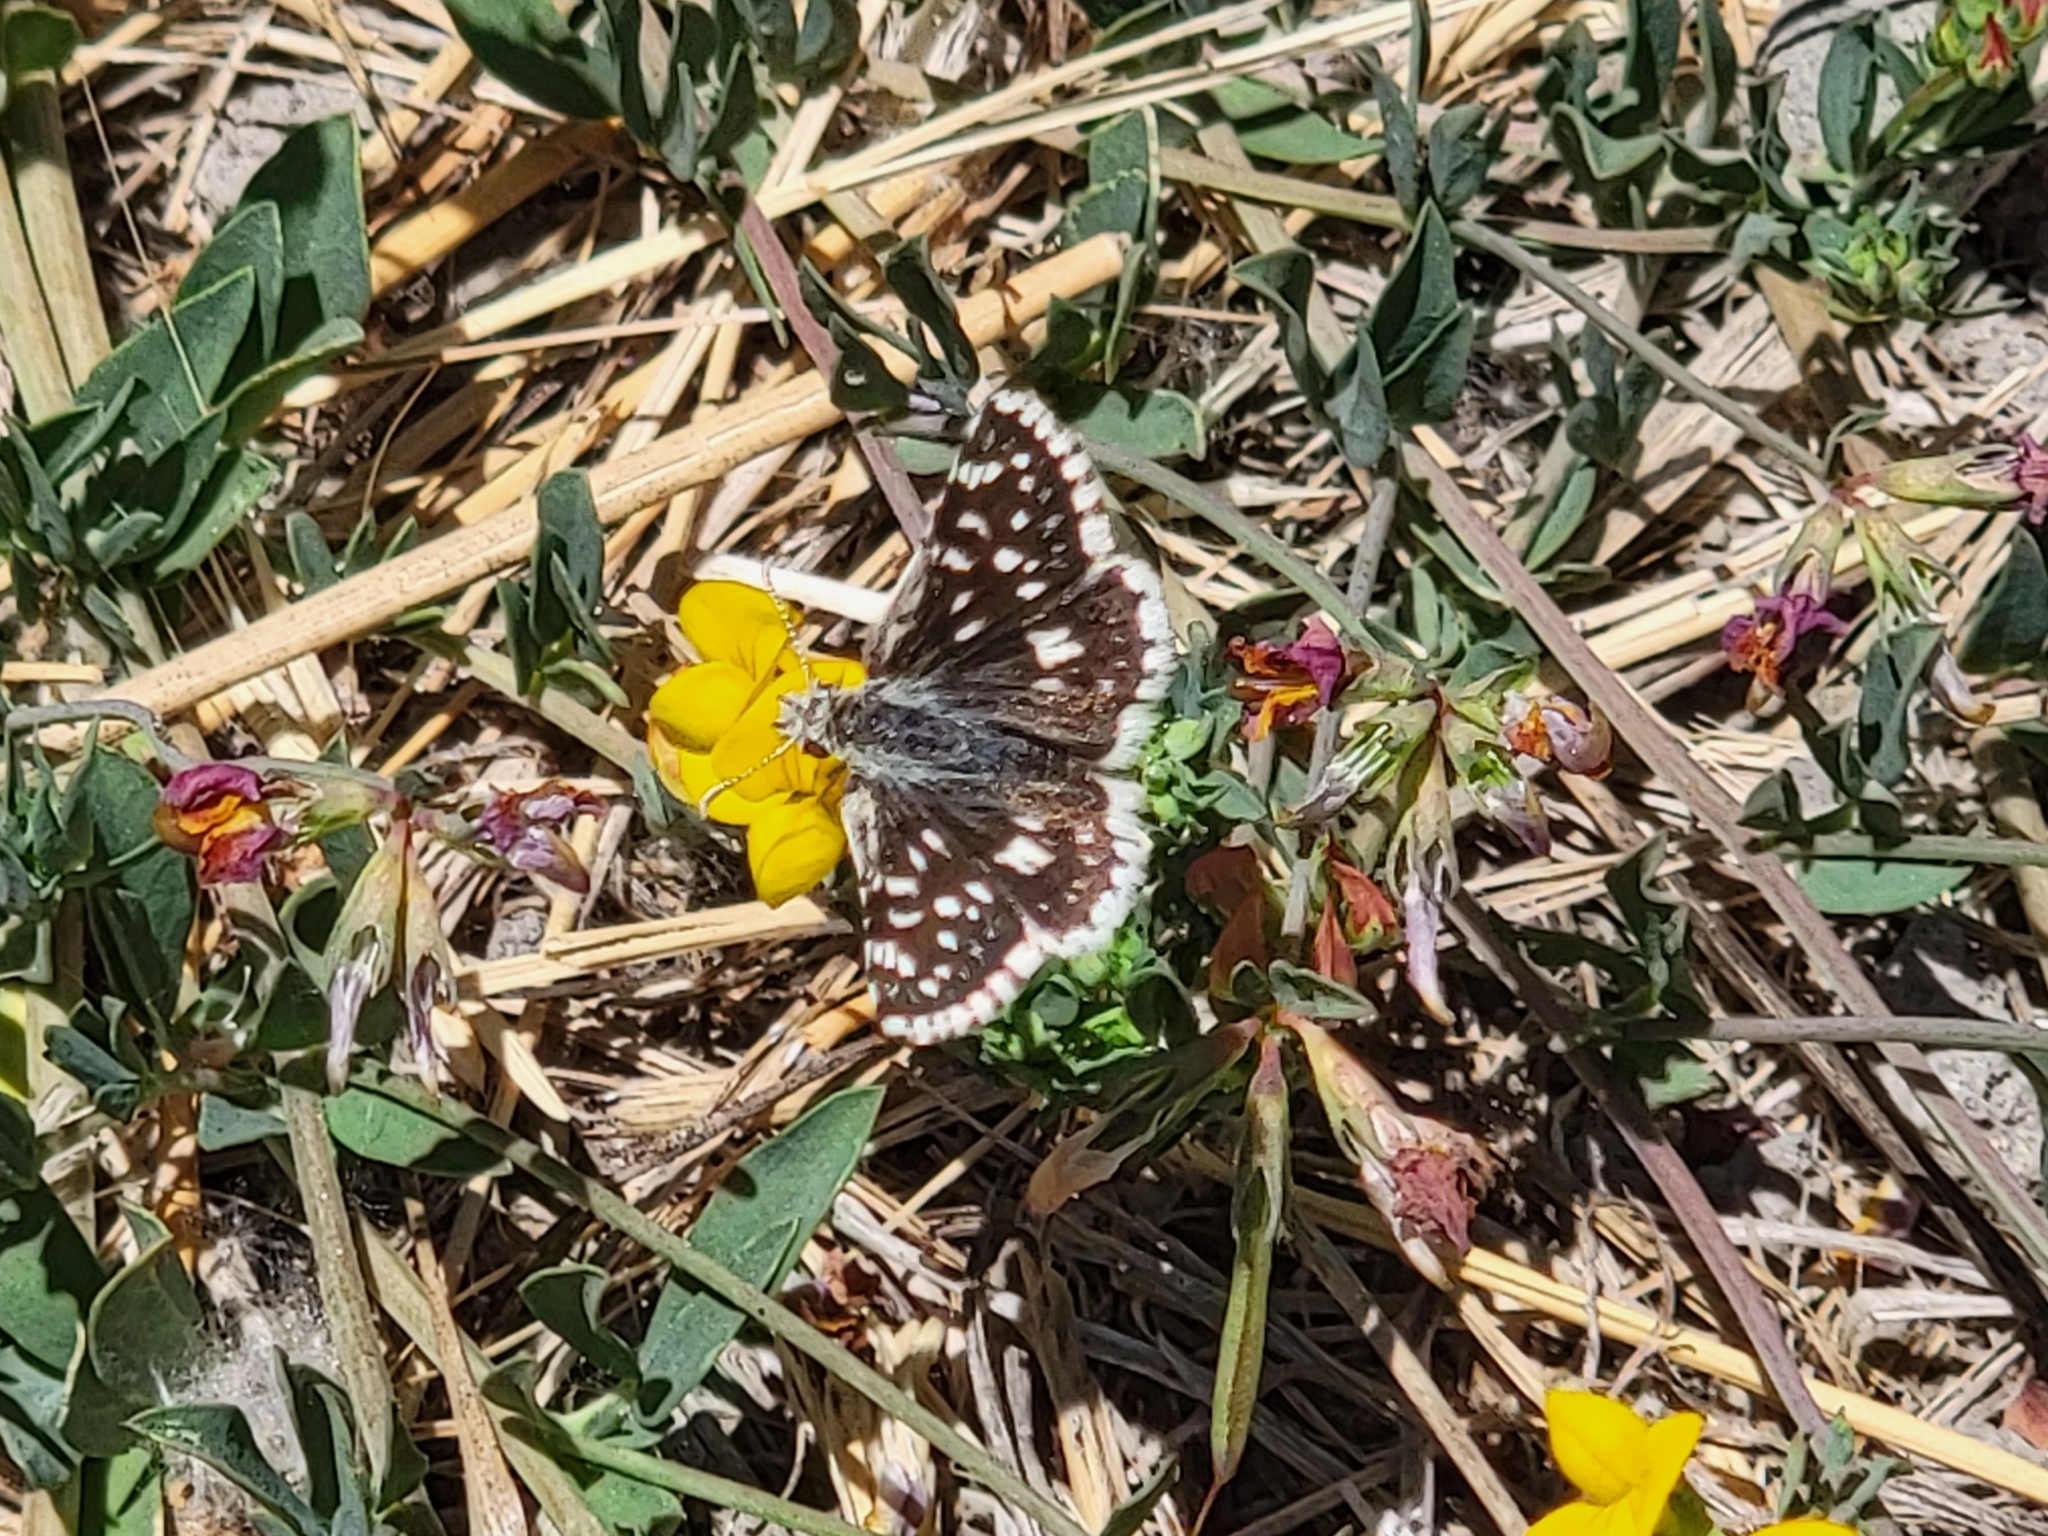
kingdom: Animalia
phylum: Arthropoda
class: Insecta
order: Lepidoptera
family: Hesperiidae
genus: Pyrgus
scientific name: Pyrgus scriptura
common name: Small checkered-skipper
